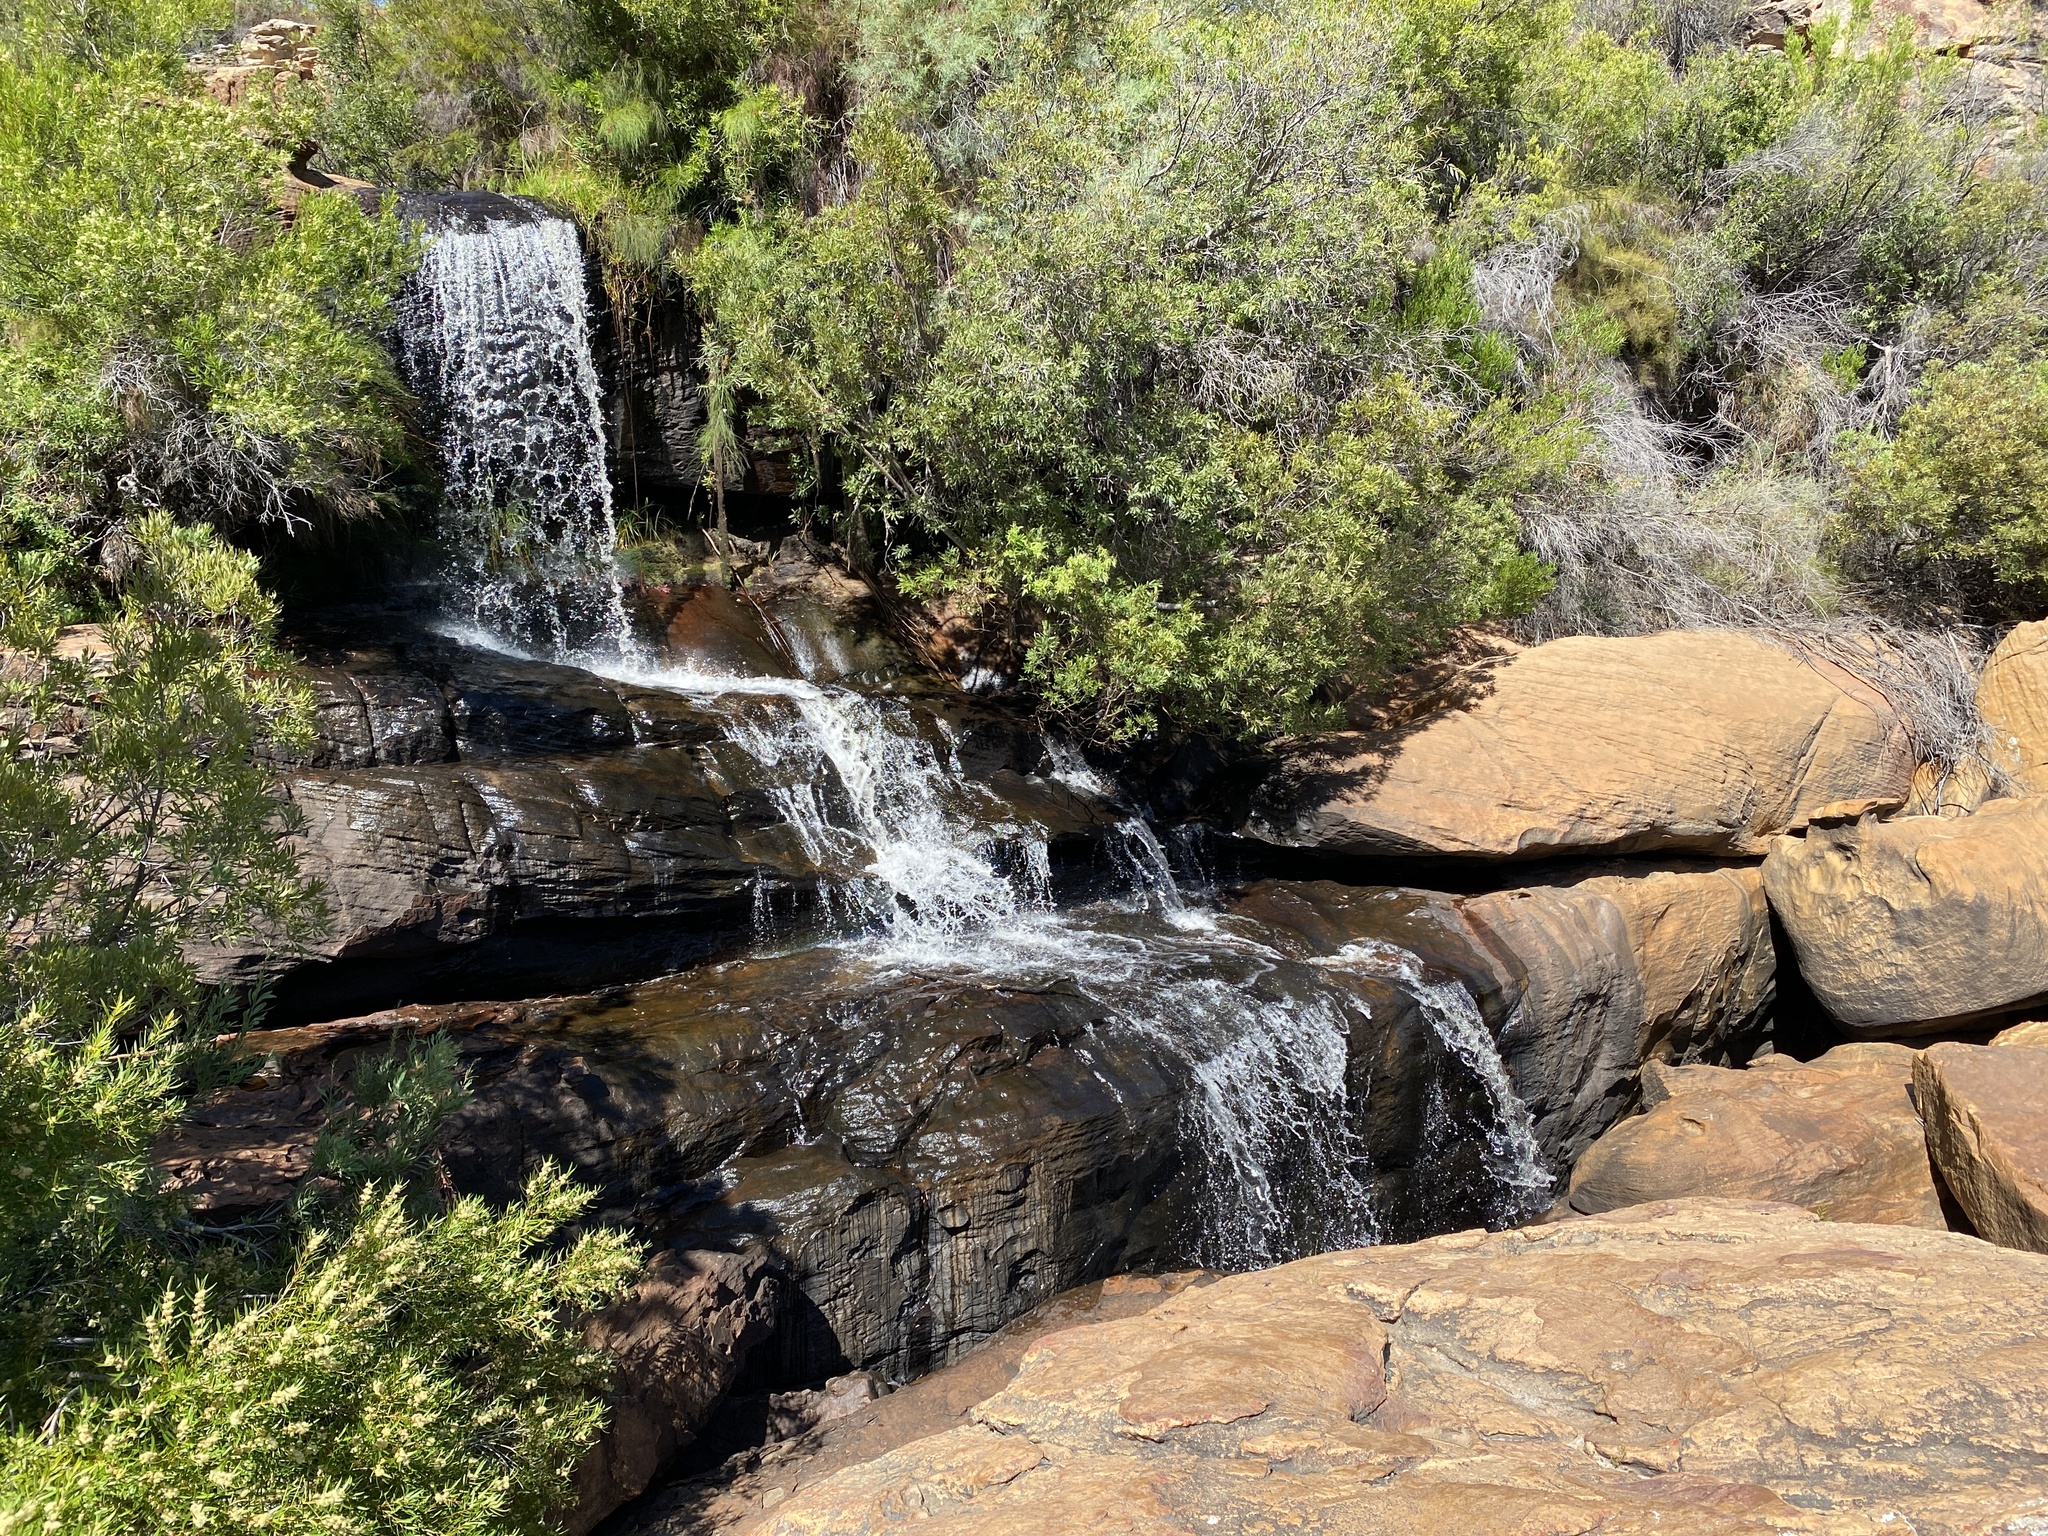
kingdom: Plantae
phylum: Tracheophyta
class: Magnoliopsida
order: Myrtales
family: Myrtaceae
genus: Callistemon
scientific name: Callistemon lanceolatus
